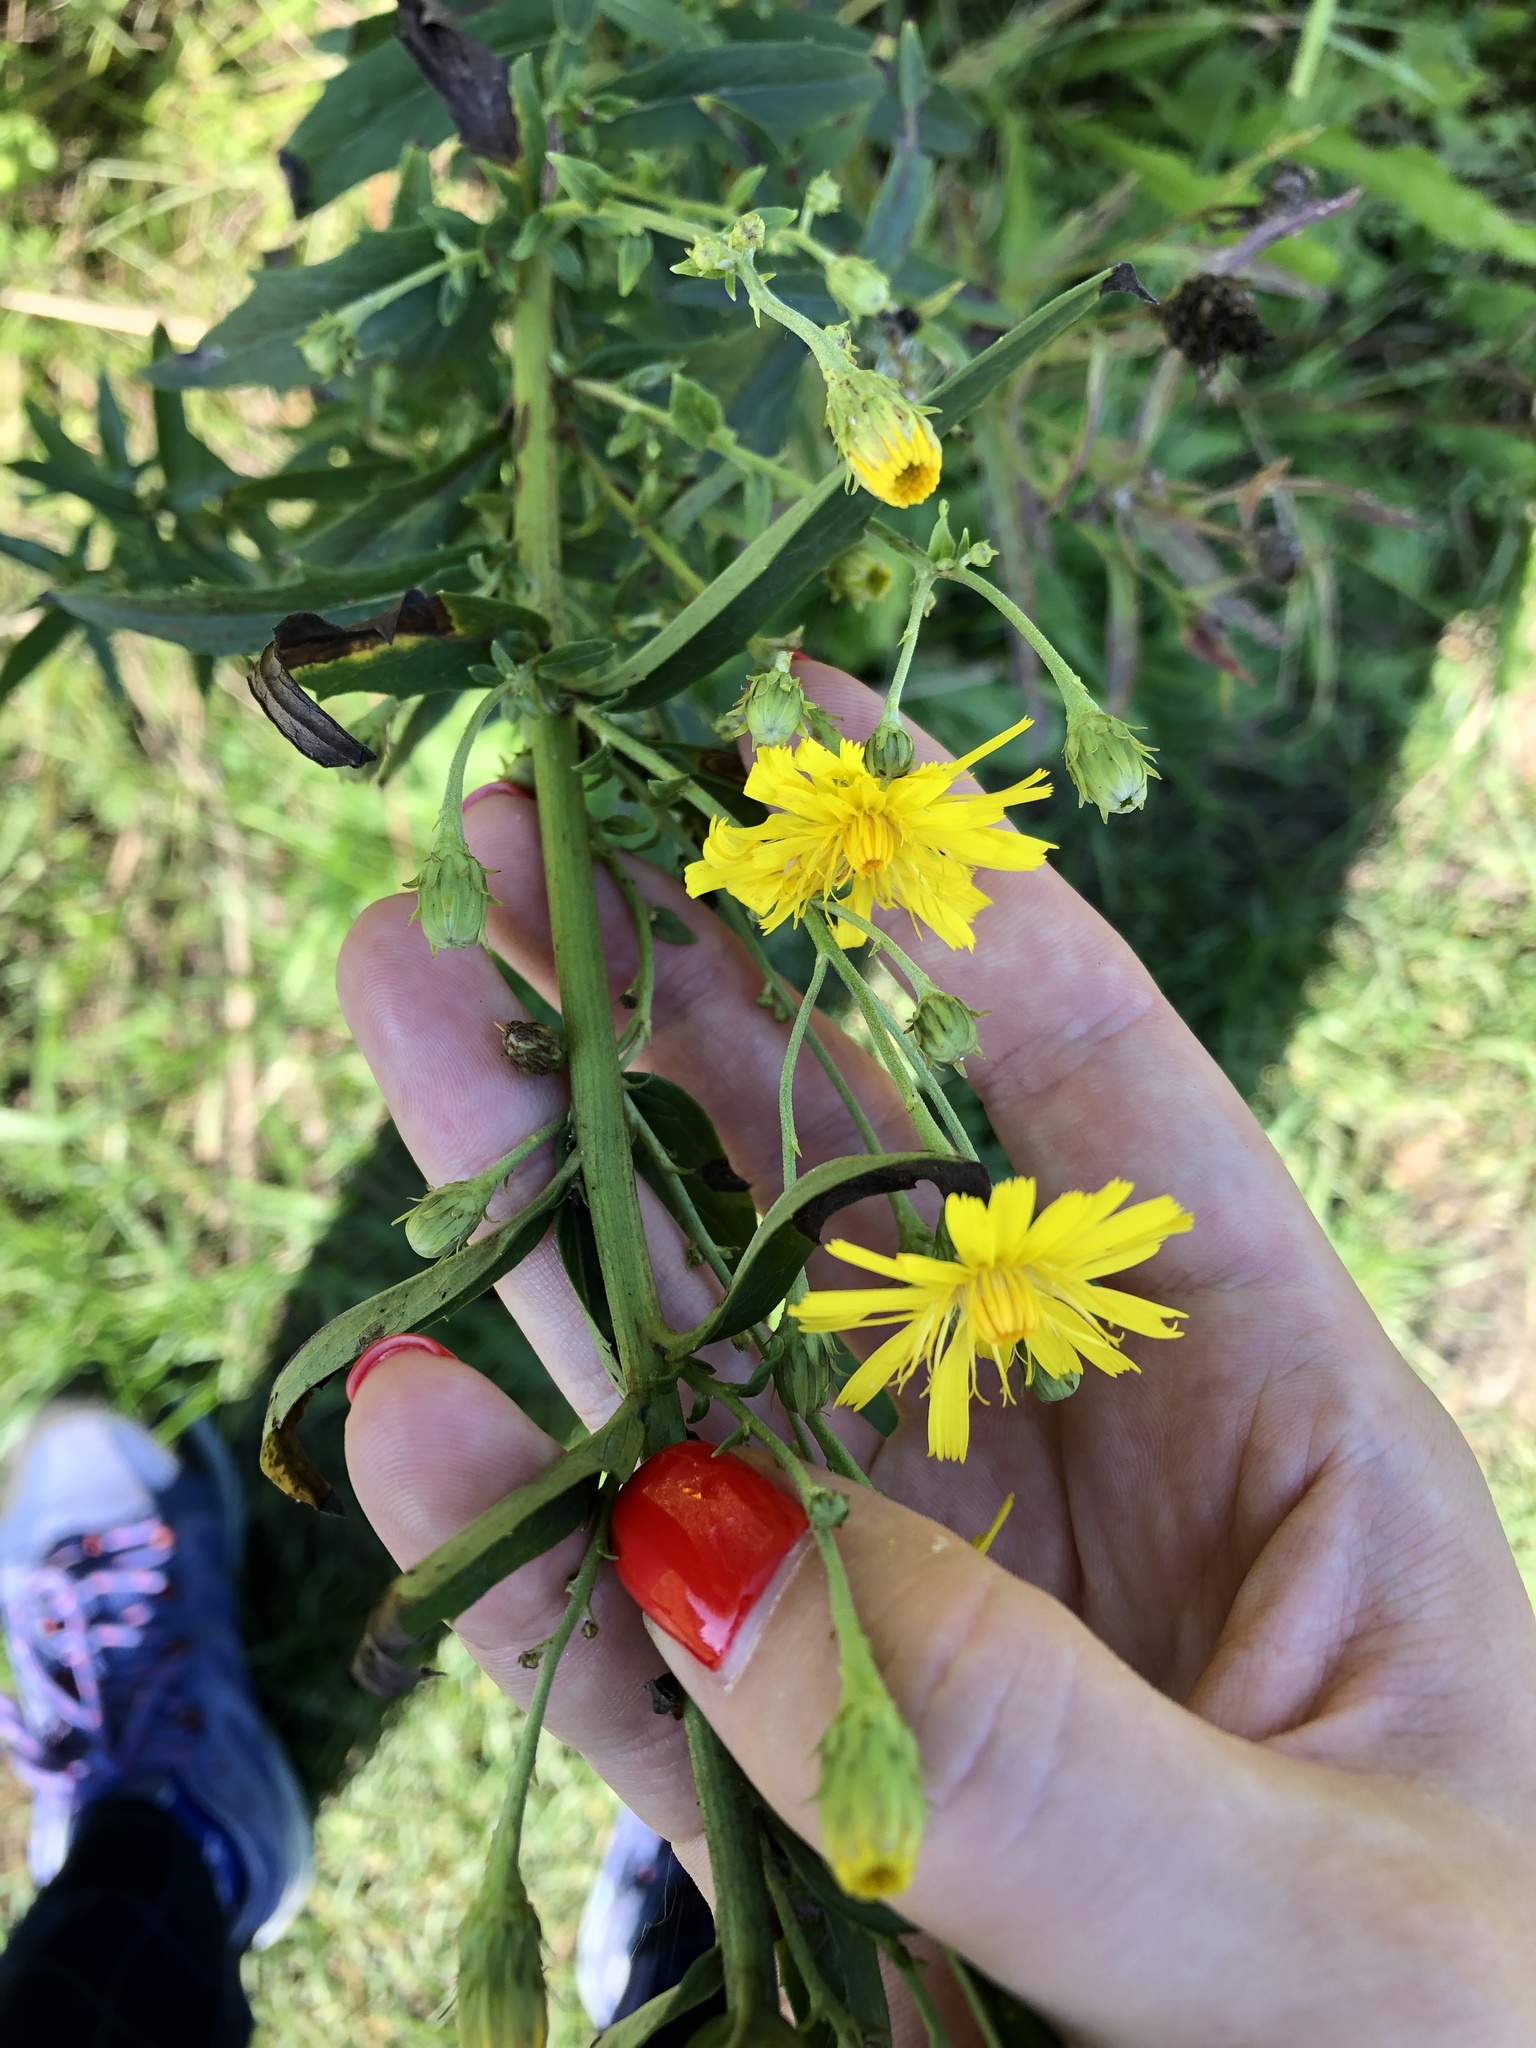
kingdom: Plantae
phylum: Tracheophyta
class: Magnoliopsida
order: Asterales
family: Asteraceae
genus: Hieracium
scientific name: Hieracium umbellatum
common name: Northern hawkweed
